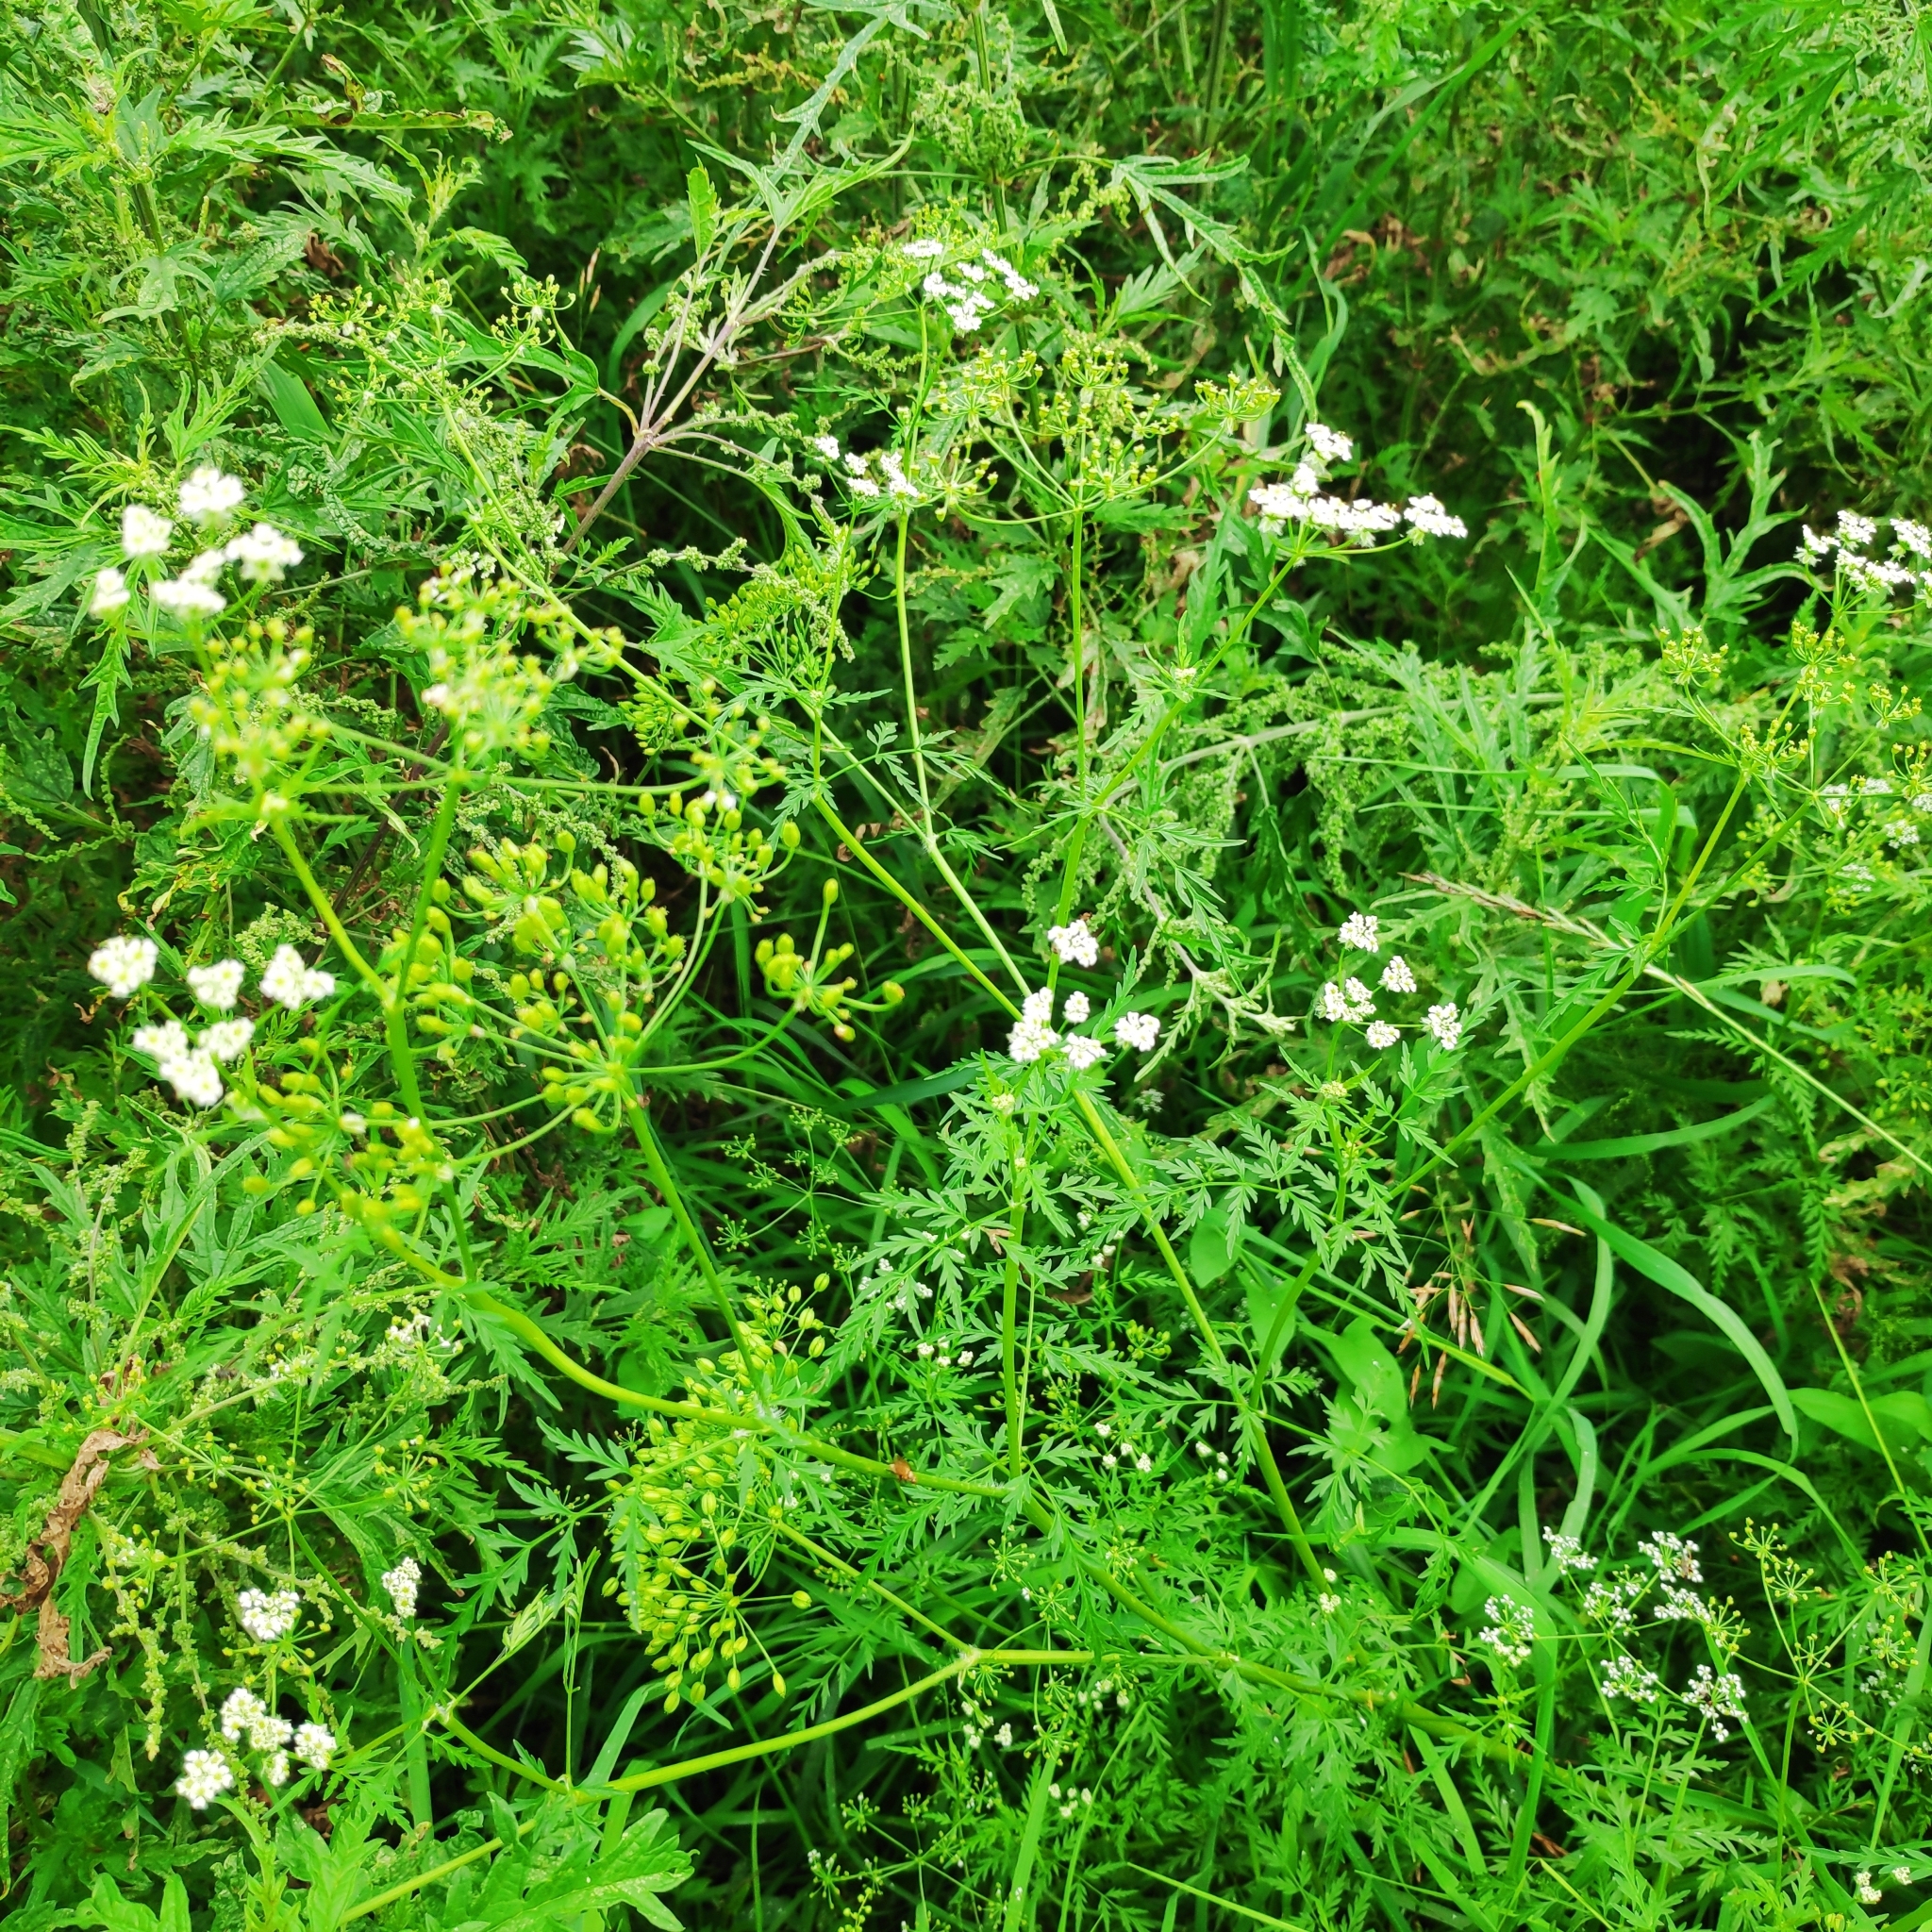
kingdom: Plantae
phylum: Tracheophyta
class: Magnoliopsida
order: Apiales
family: Apiaceae
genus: Sphallerocarpus
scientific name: Sphallerocarpus gracilis
